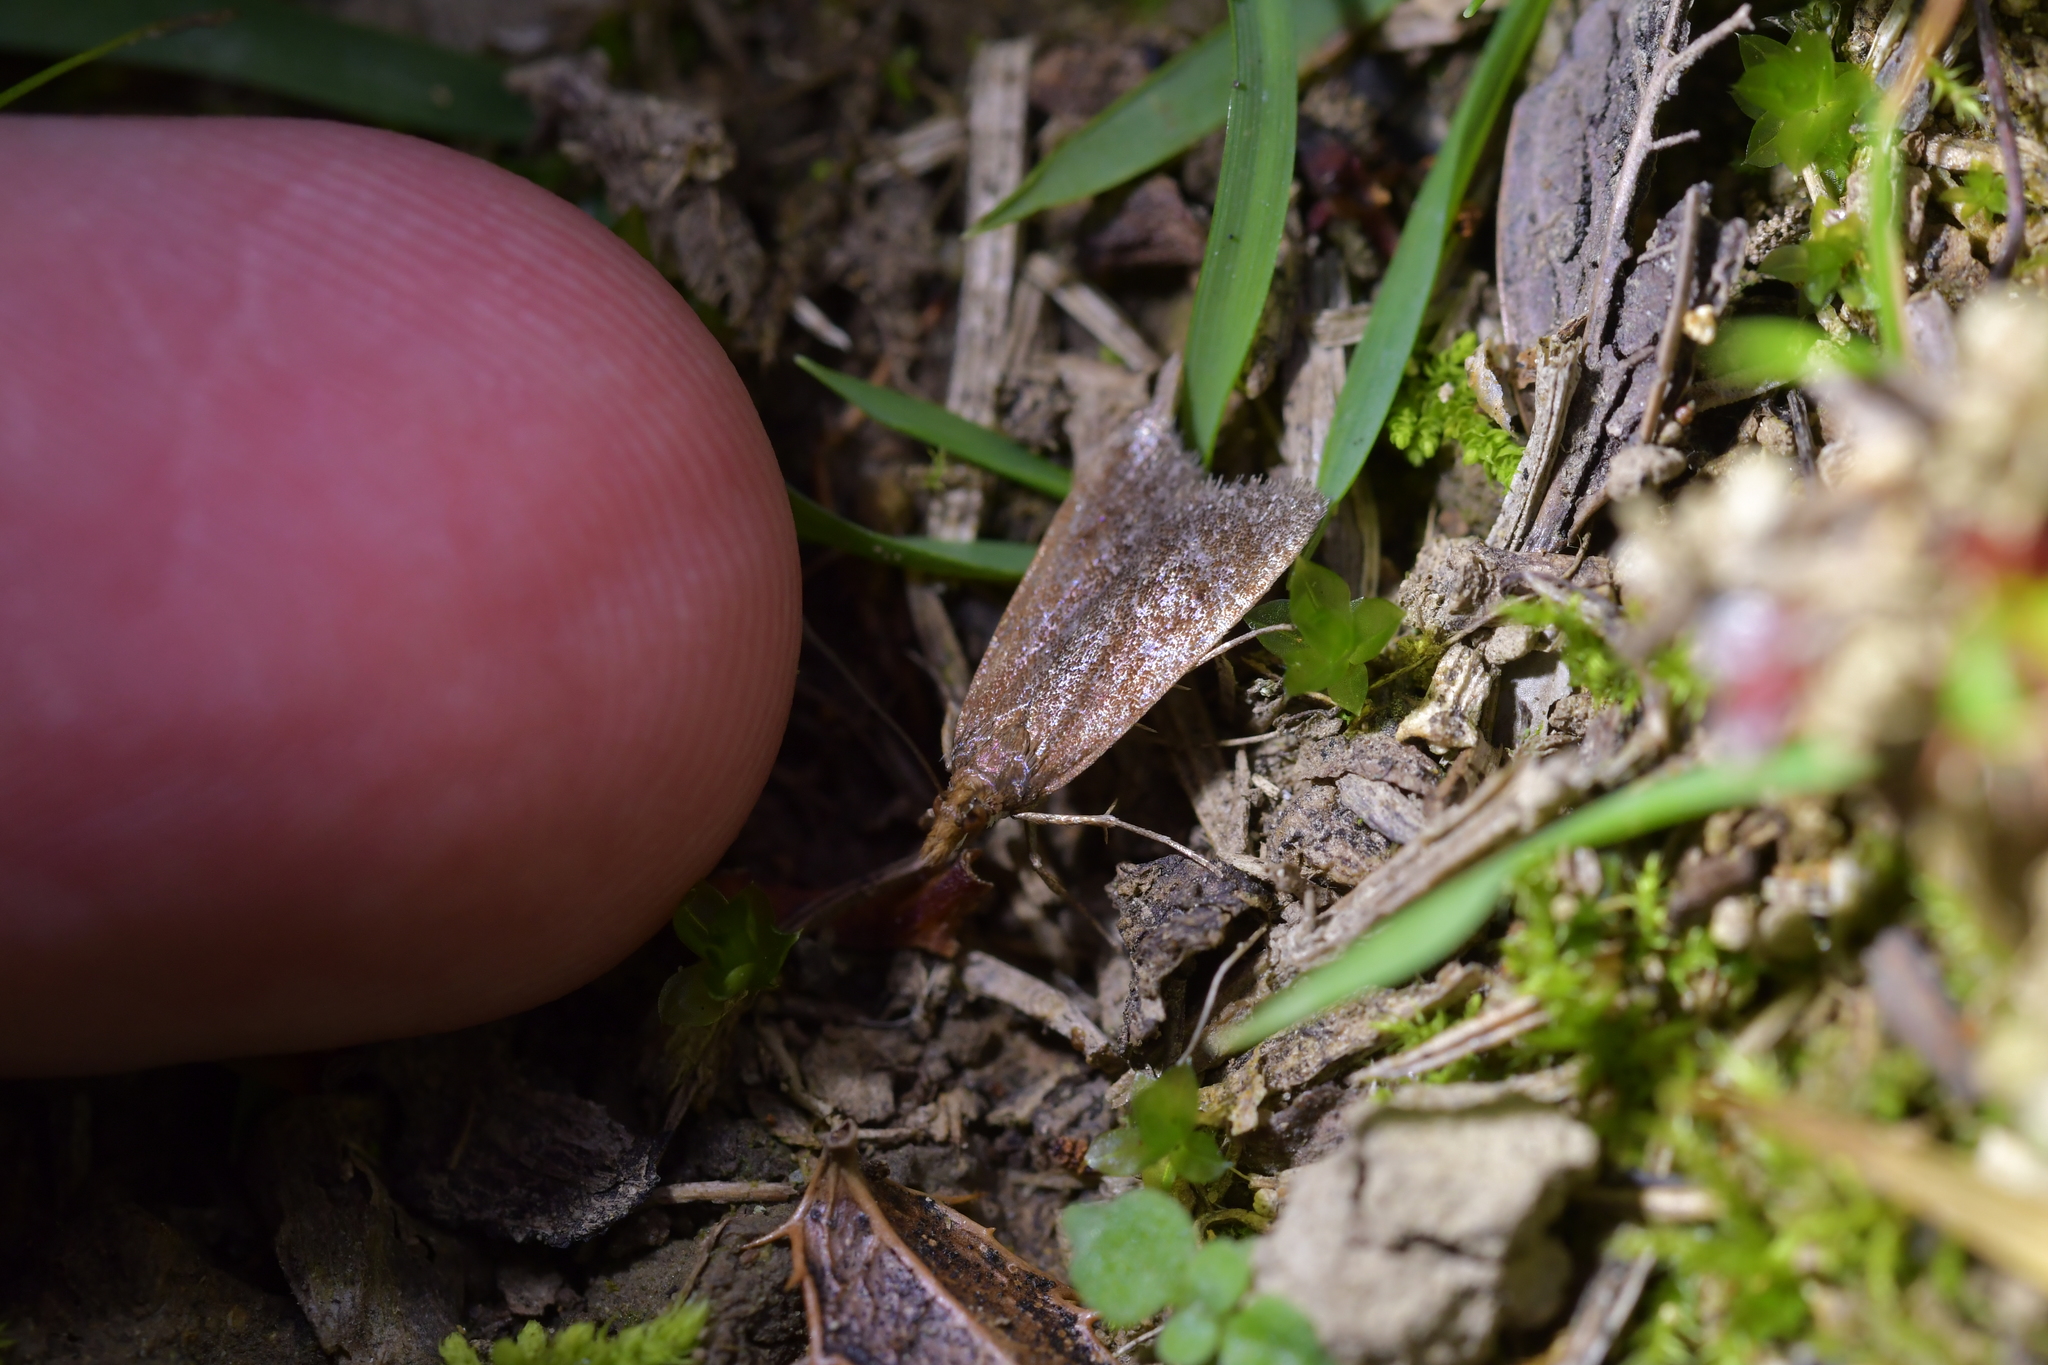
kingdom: Animalia
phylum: Arthropoda
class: Insecta
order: Lepidoptera
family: Crambidae
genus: Eudonia
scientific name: Eudonia feredayi
